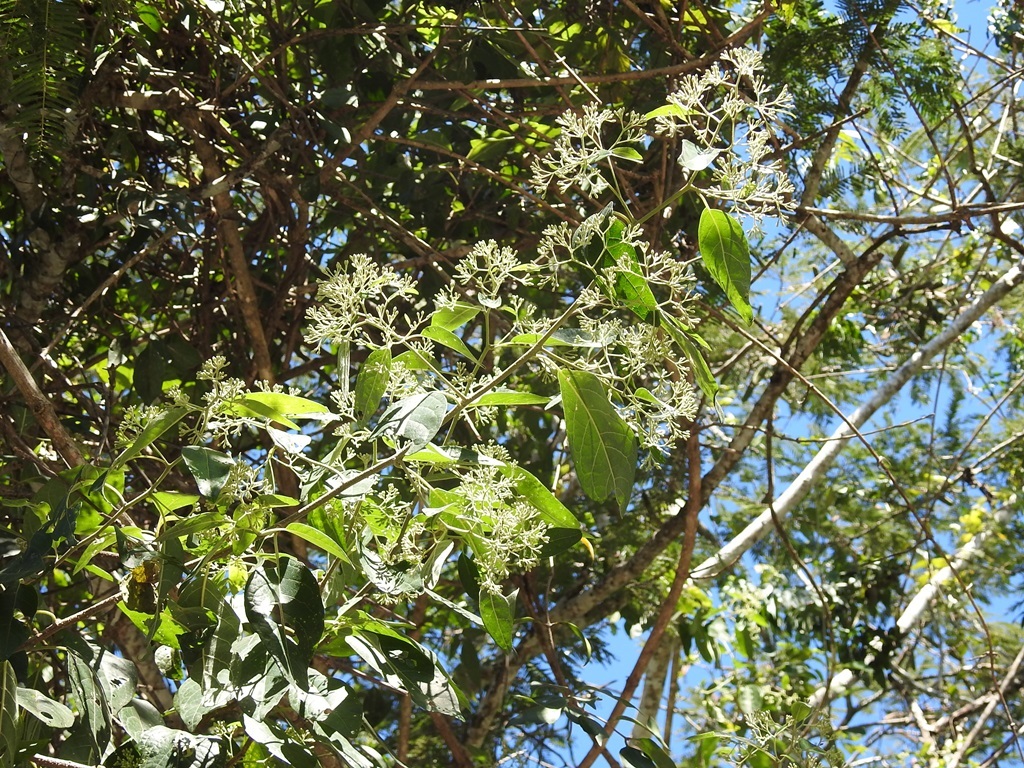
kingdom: Plantae
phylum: Tracheophyta
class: Magnoliopsida
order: Asterales
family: Asteraceae
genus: Eremosis
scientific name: Eremosis triflosculosa
